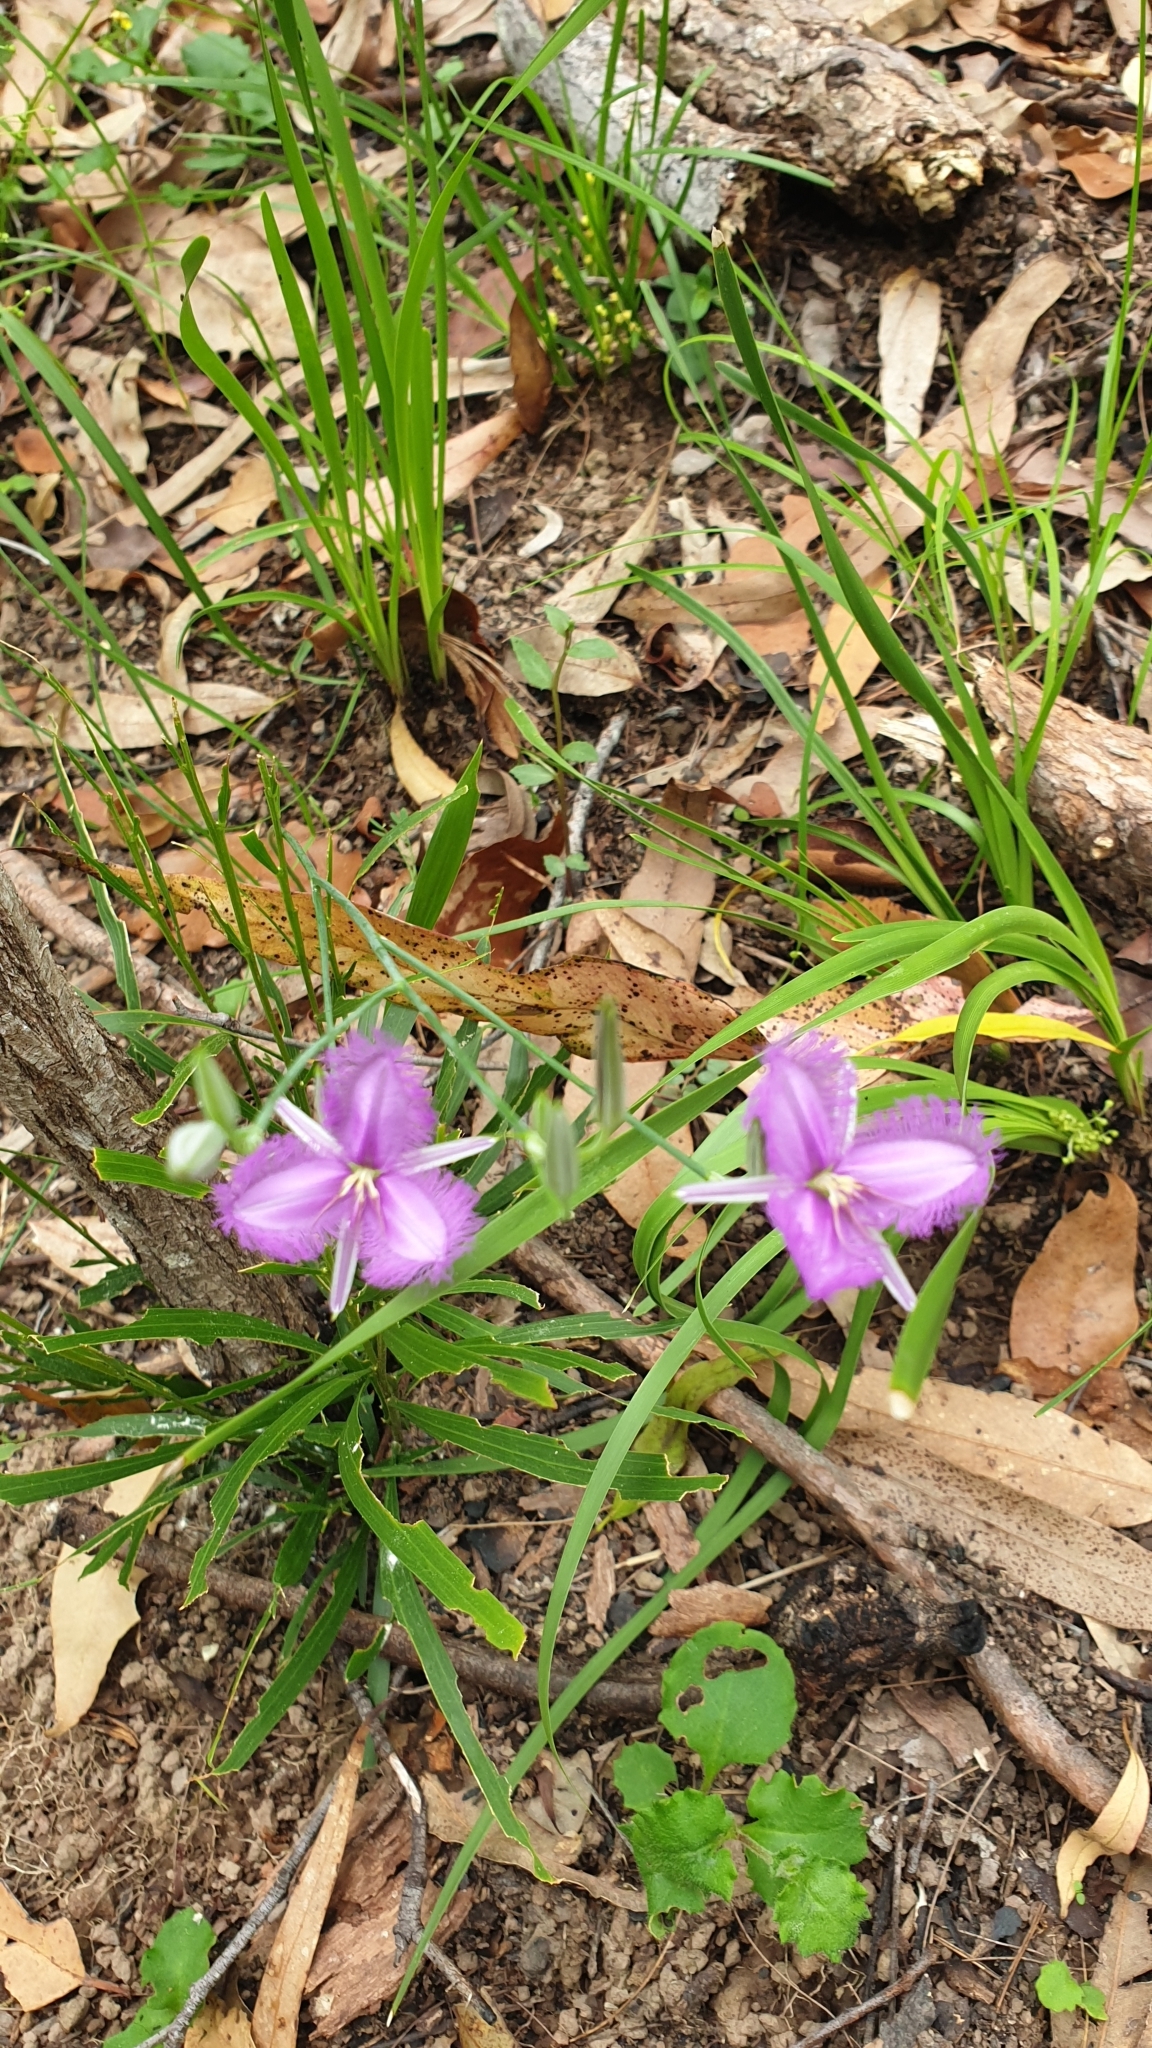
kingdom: Plantae
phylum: Tracheophyta
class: Liliopsida
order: Asparagales
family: Asparagaceae
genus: Thysanotus
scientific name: Thysanotus tuberosus
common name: Common fringed-lily
